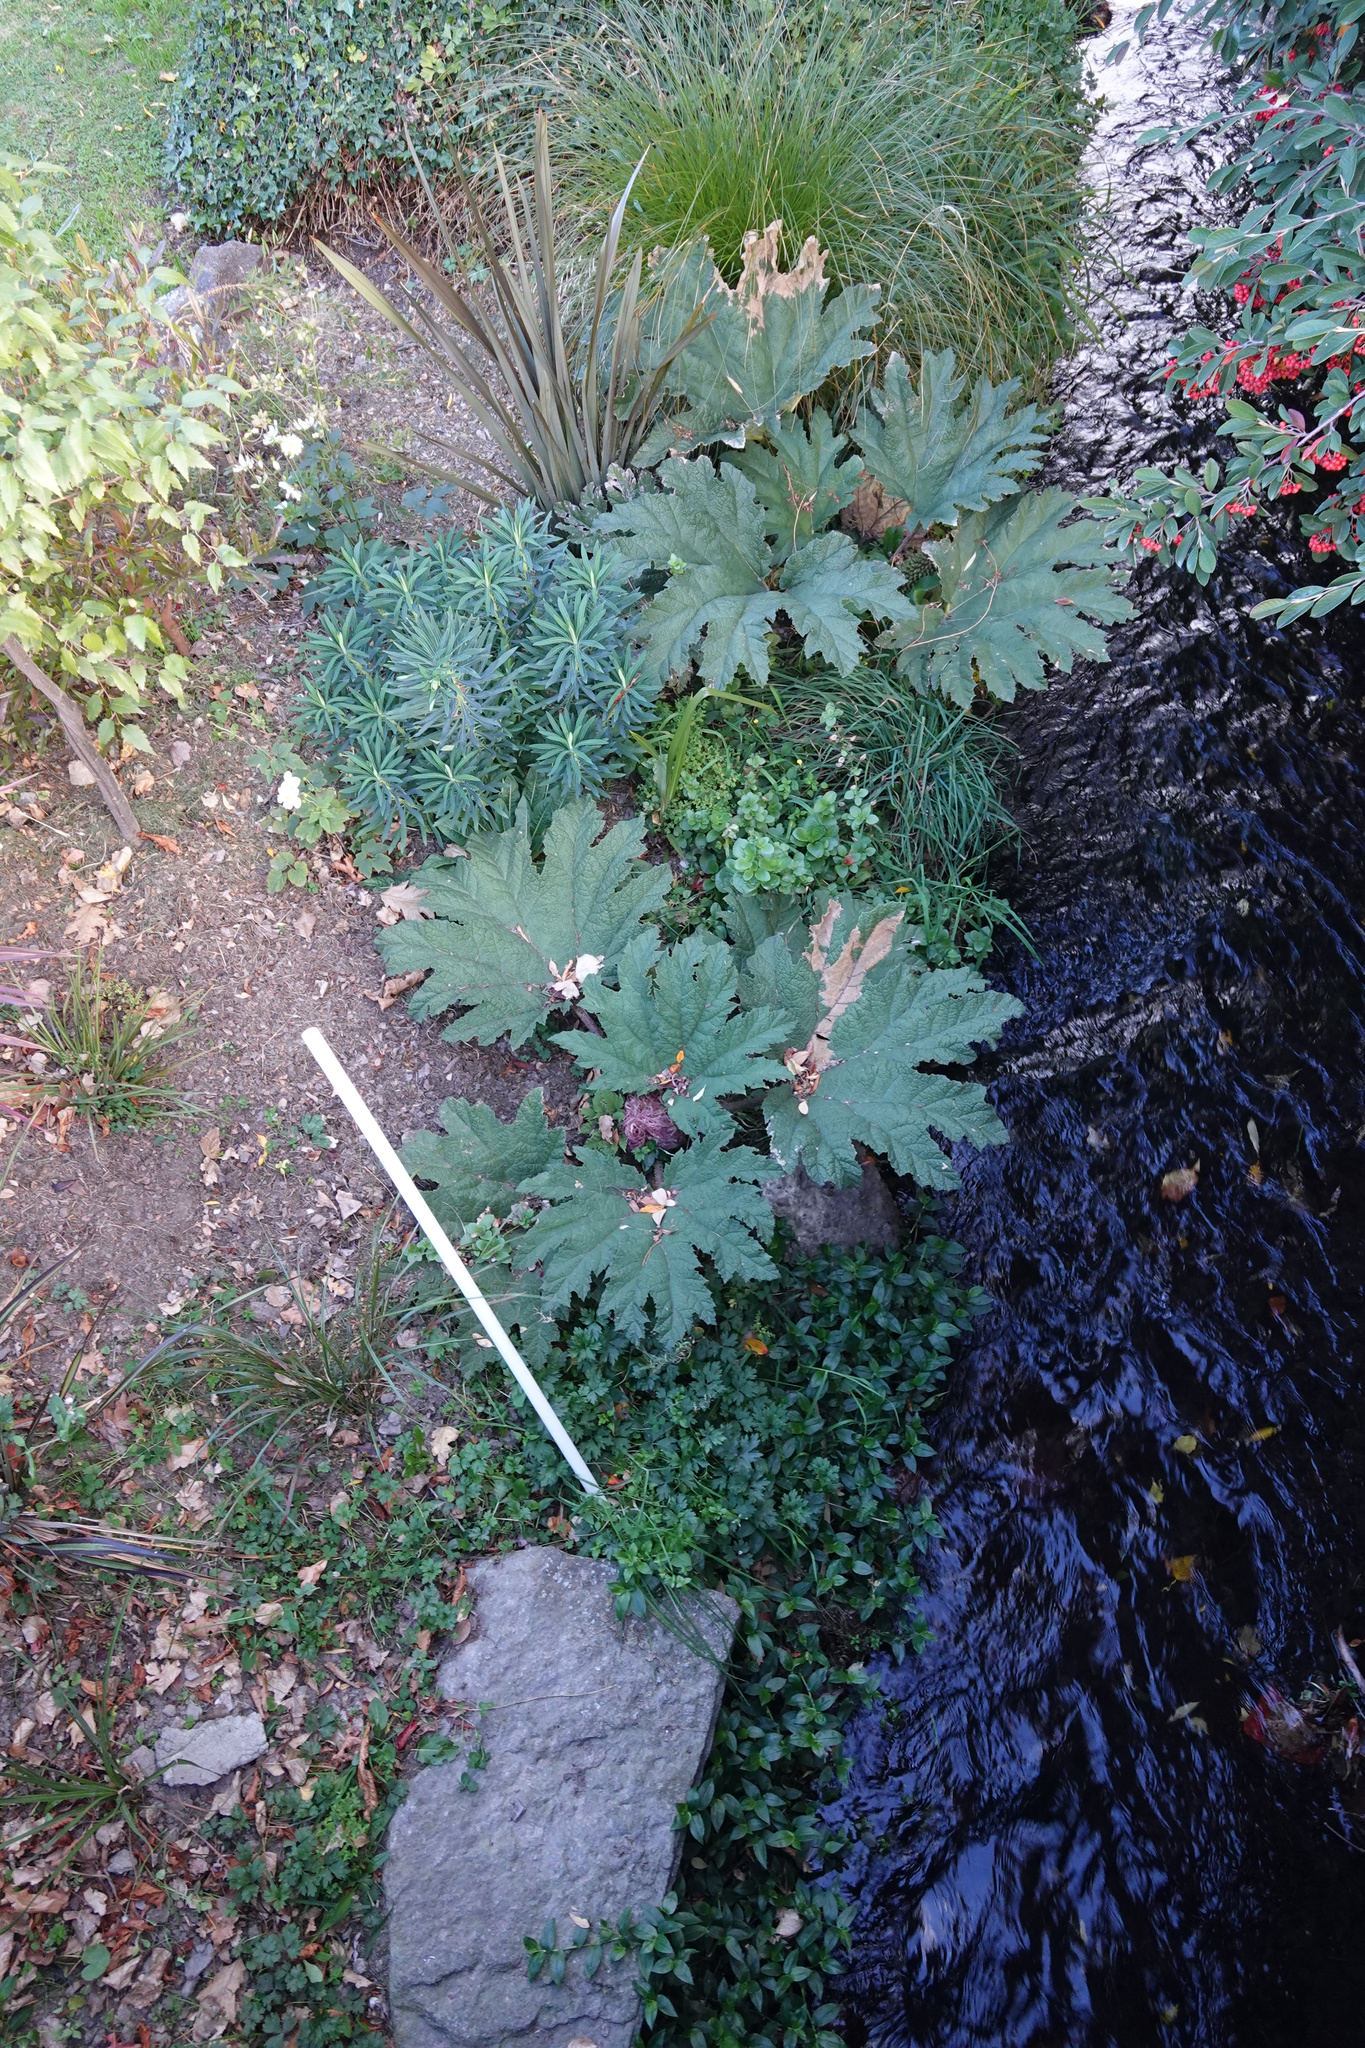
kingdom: Plantae
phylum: Tracheophyta
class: Magnoliopsida
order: Gunnerales
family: Gunneraceae
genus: Gunnera
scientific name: Gunnera tinctoria
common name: Giant-rhubarb
